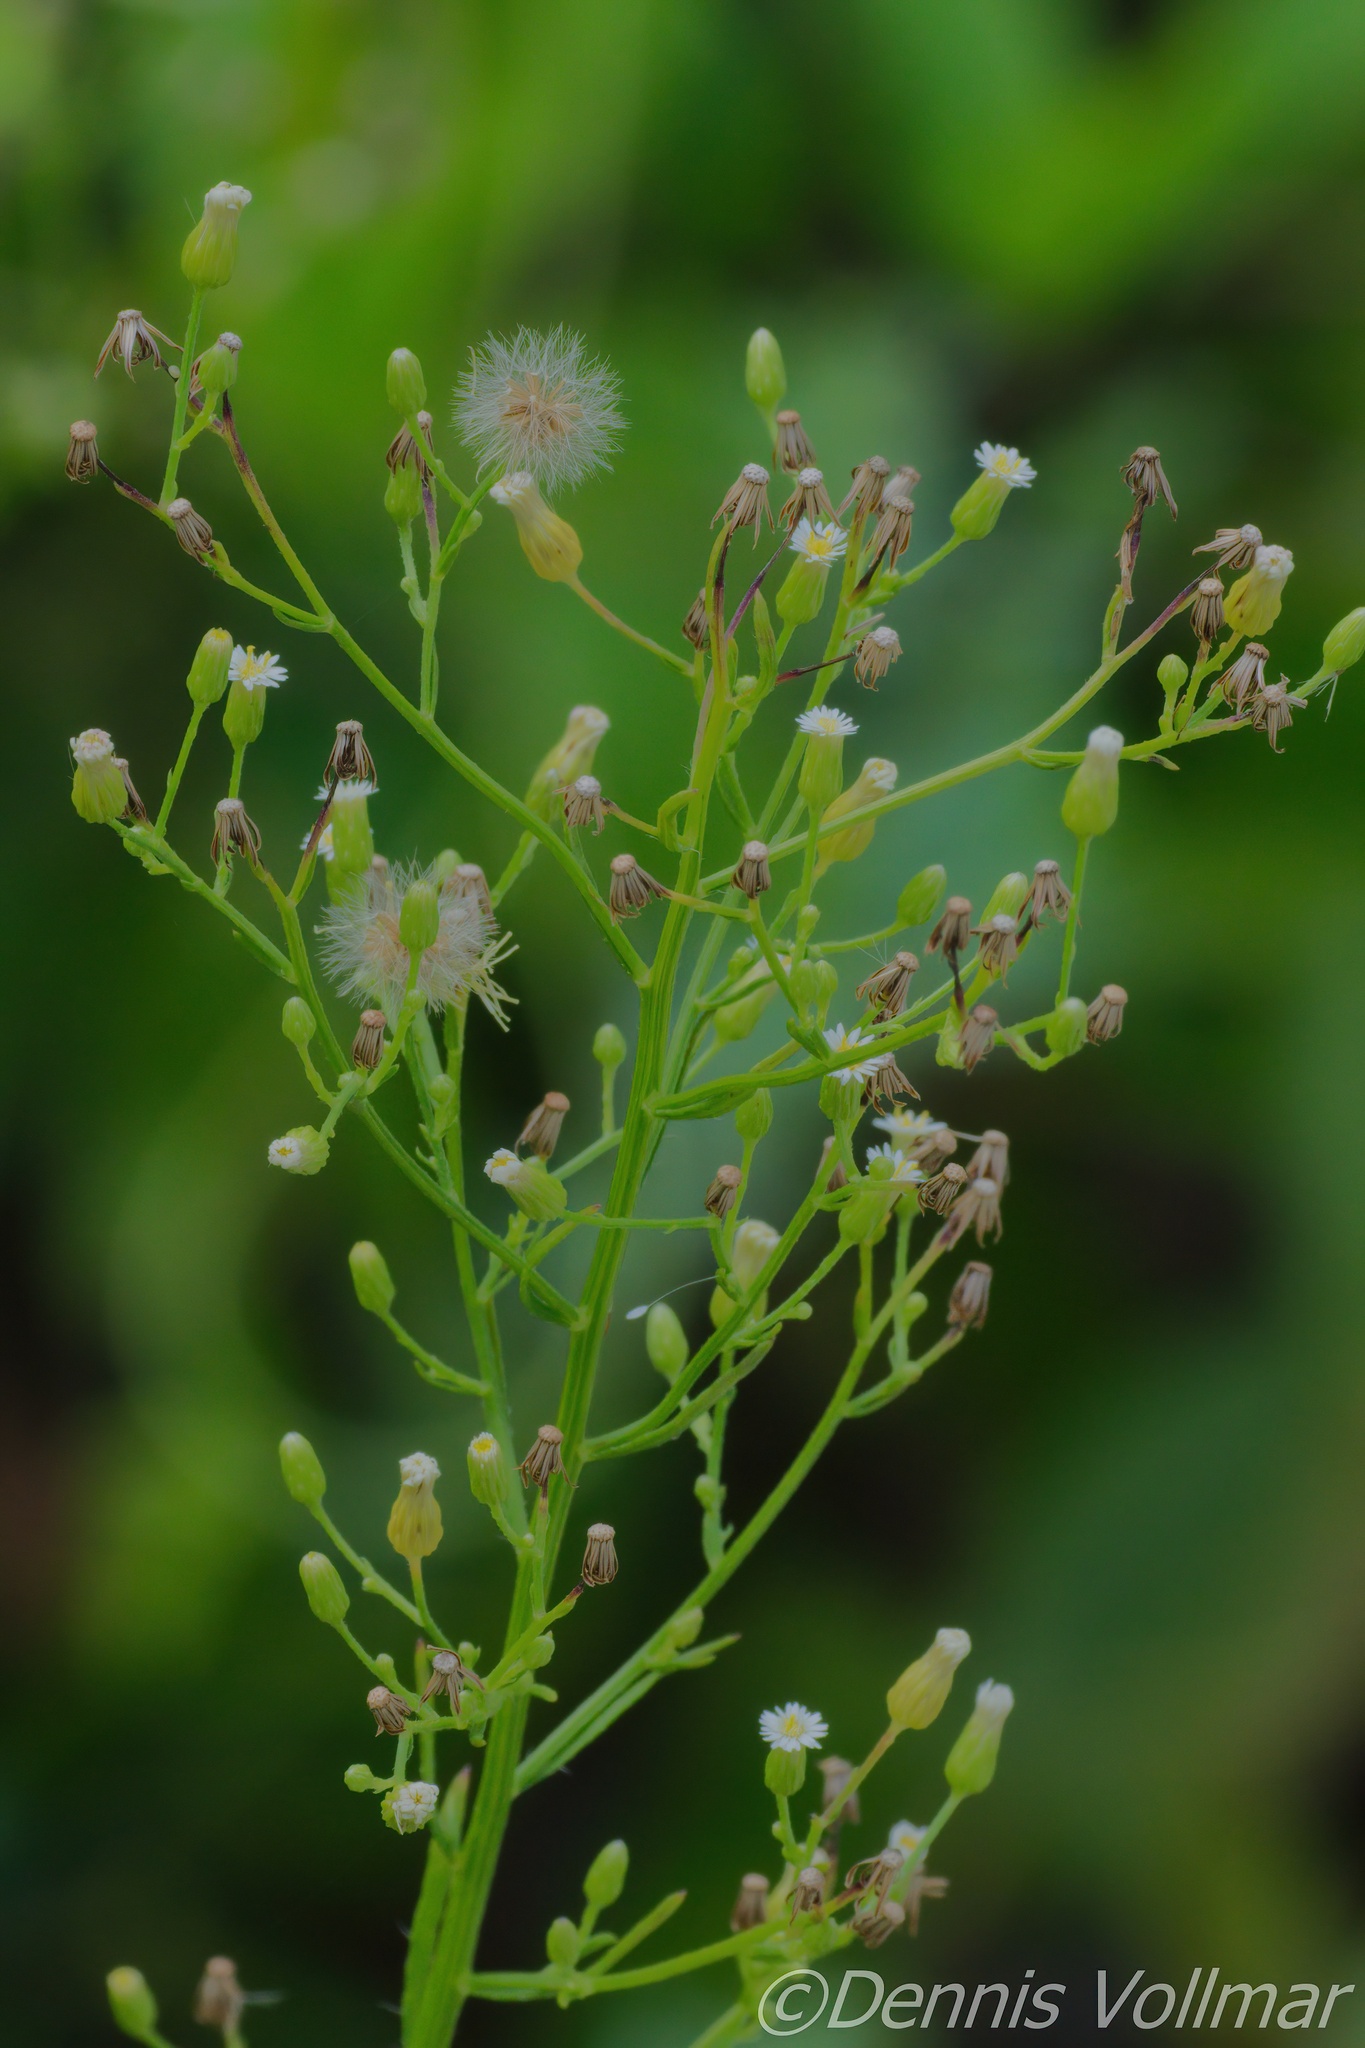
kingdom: Plantae
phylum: Tracheophyta
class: Magnoliopsida
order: Asterales
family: Asteraceae
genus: Erigeron
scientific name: Erigeron canadensis
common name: Canadian fleabane
